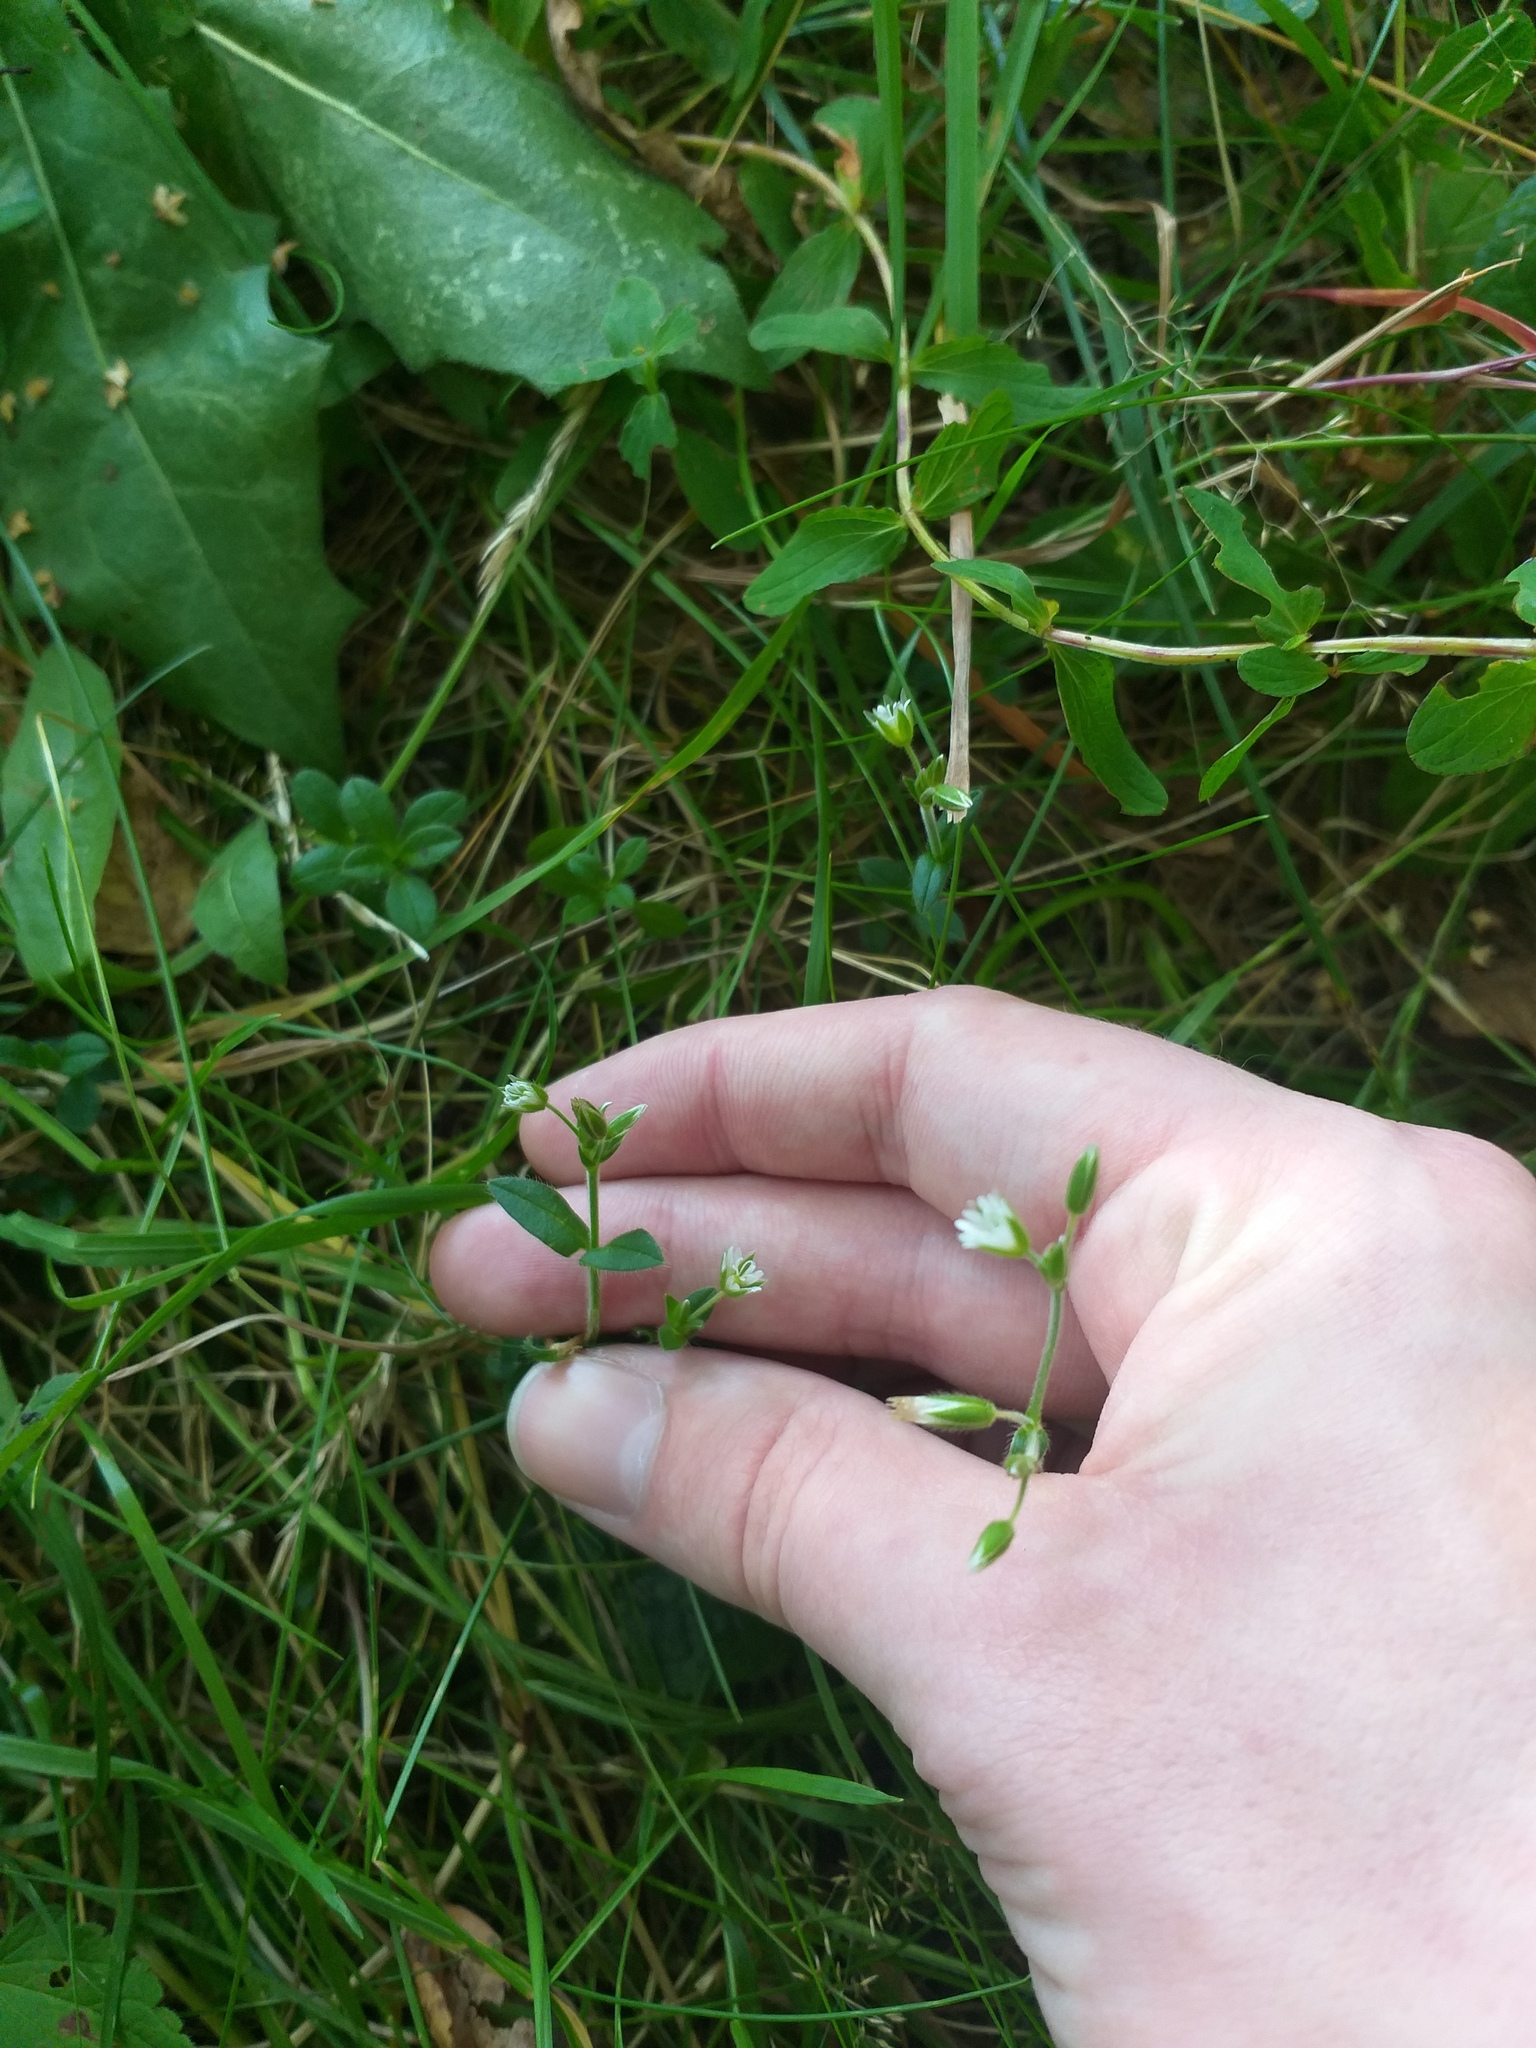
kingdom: Plantae
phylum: Tracheophyta
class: Magnoliopsida
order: Caryophyllales
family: Caryophyllaceae
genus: Cerastium
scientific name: Cerastium holosteoides
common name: Big chickweed
